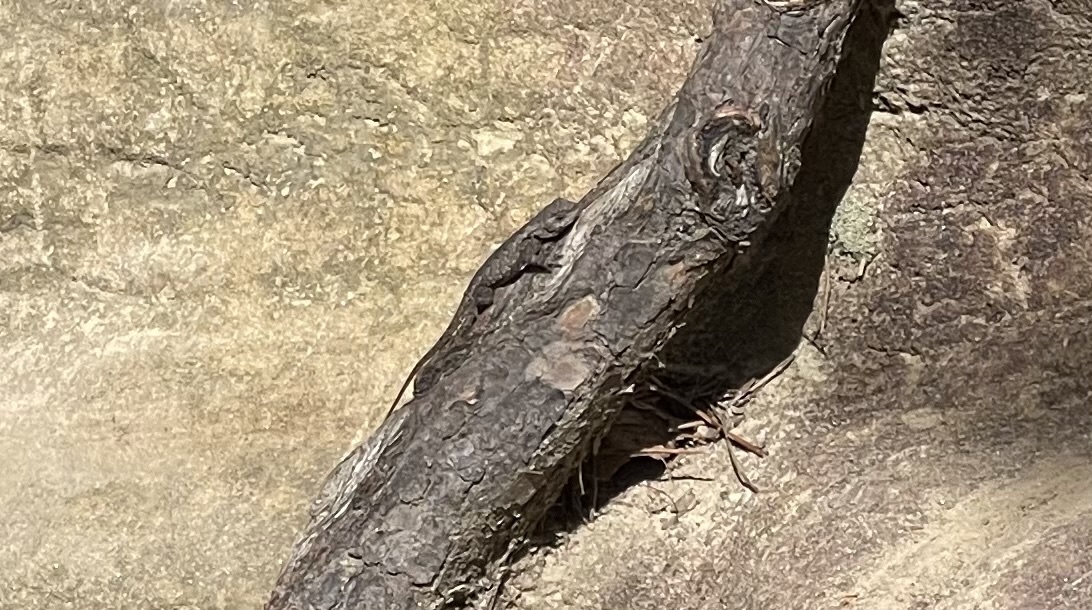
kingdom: Animalia
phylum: Chordata
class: Squamata
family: Phrynosomatidae
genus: Sceloporus
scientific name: Sceloporus undulatus
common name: Eastern fence lizard
